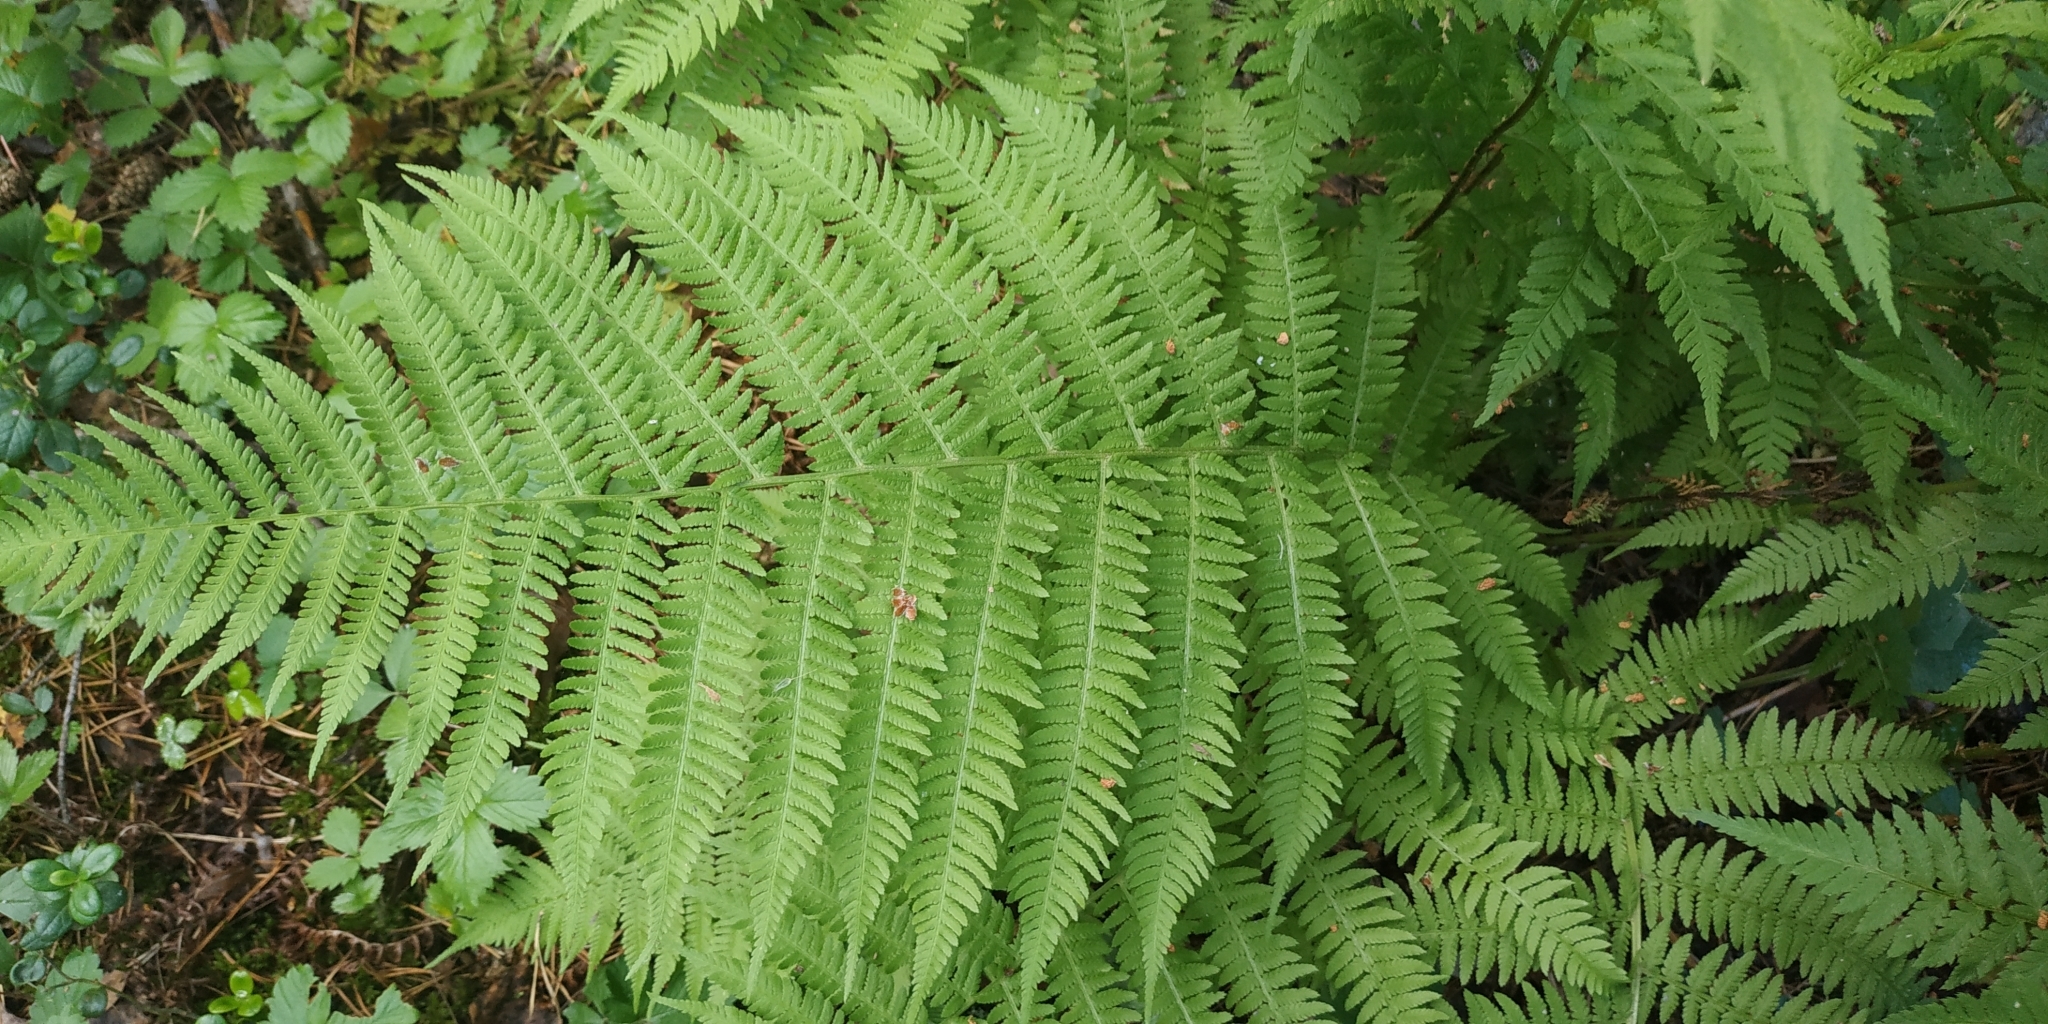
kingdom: Plantae
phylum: Tracheophyta
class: Polypodiopsida
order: Polypodiales
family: Athyriaceae
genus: Athyrium
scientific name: Athyrium filix-femina
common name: Lady fern
